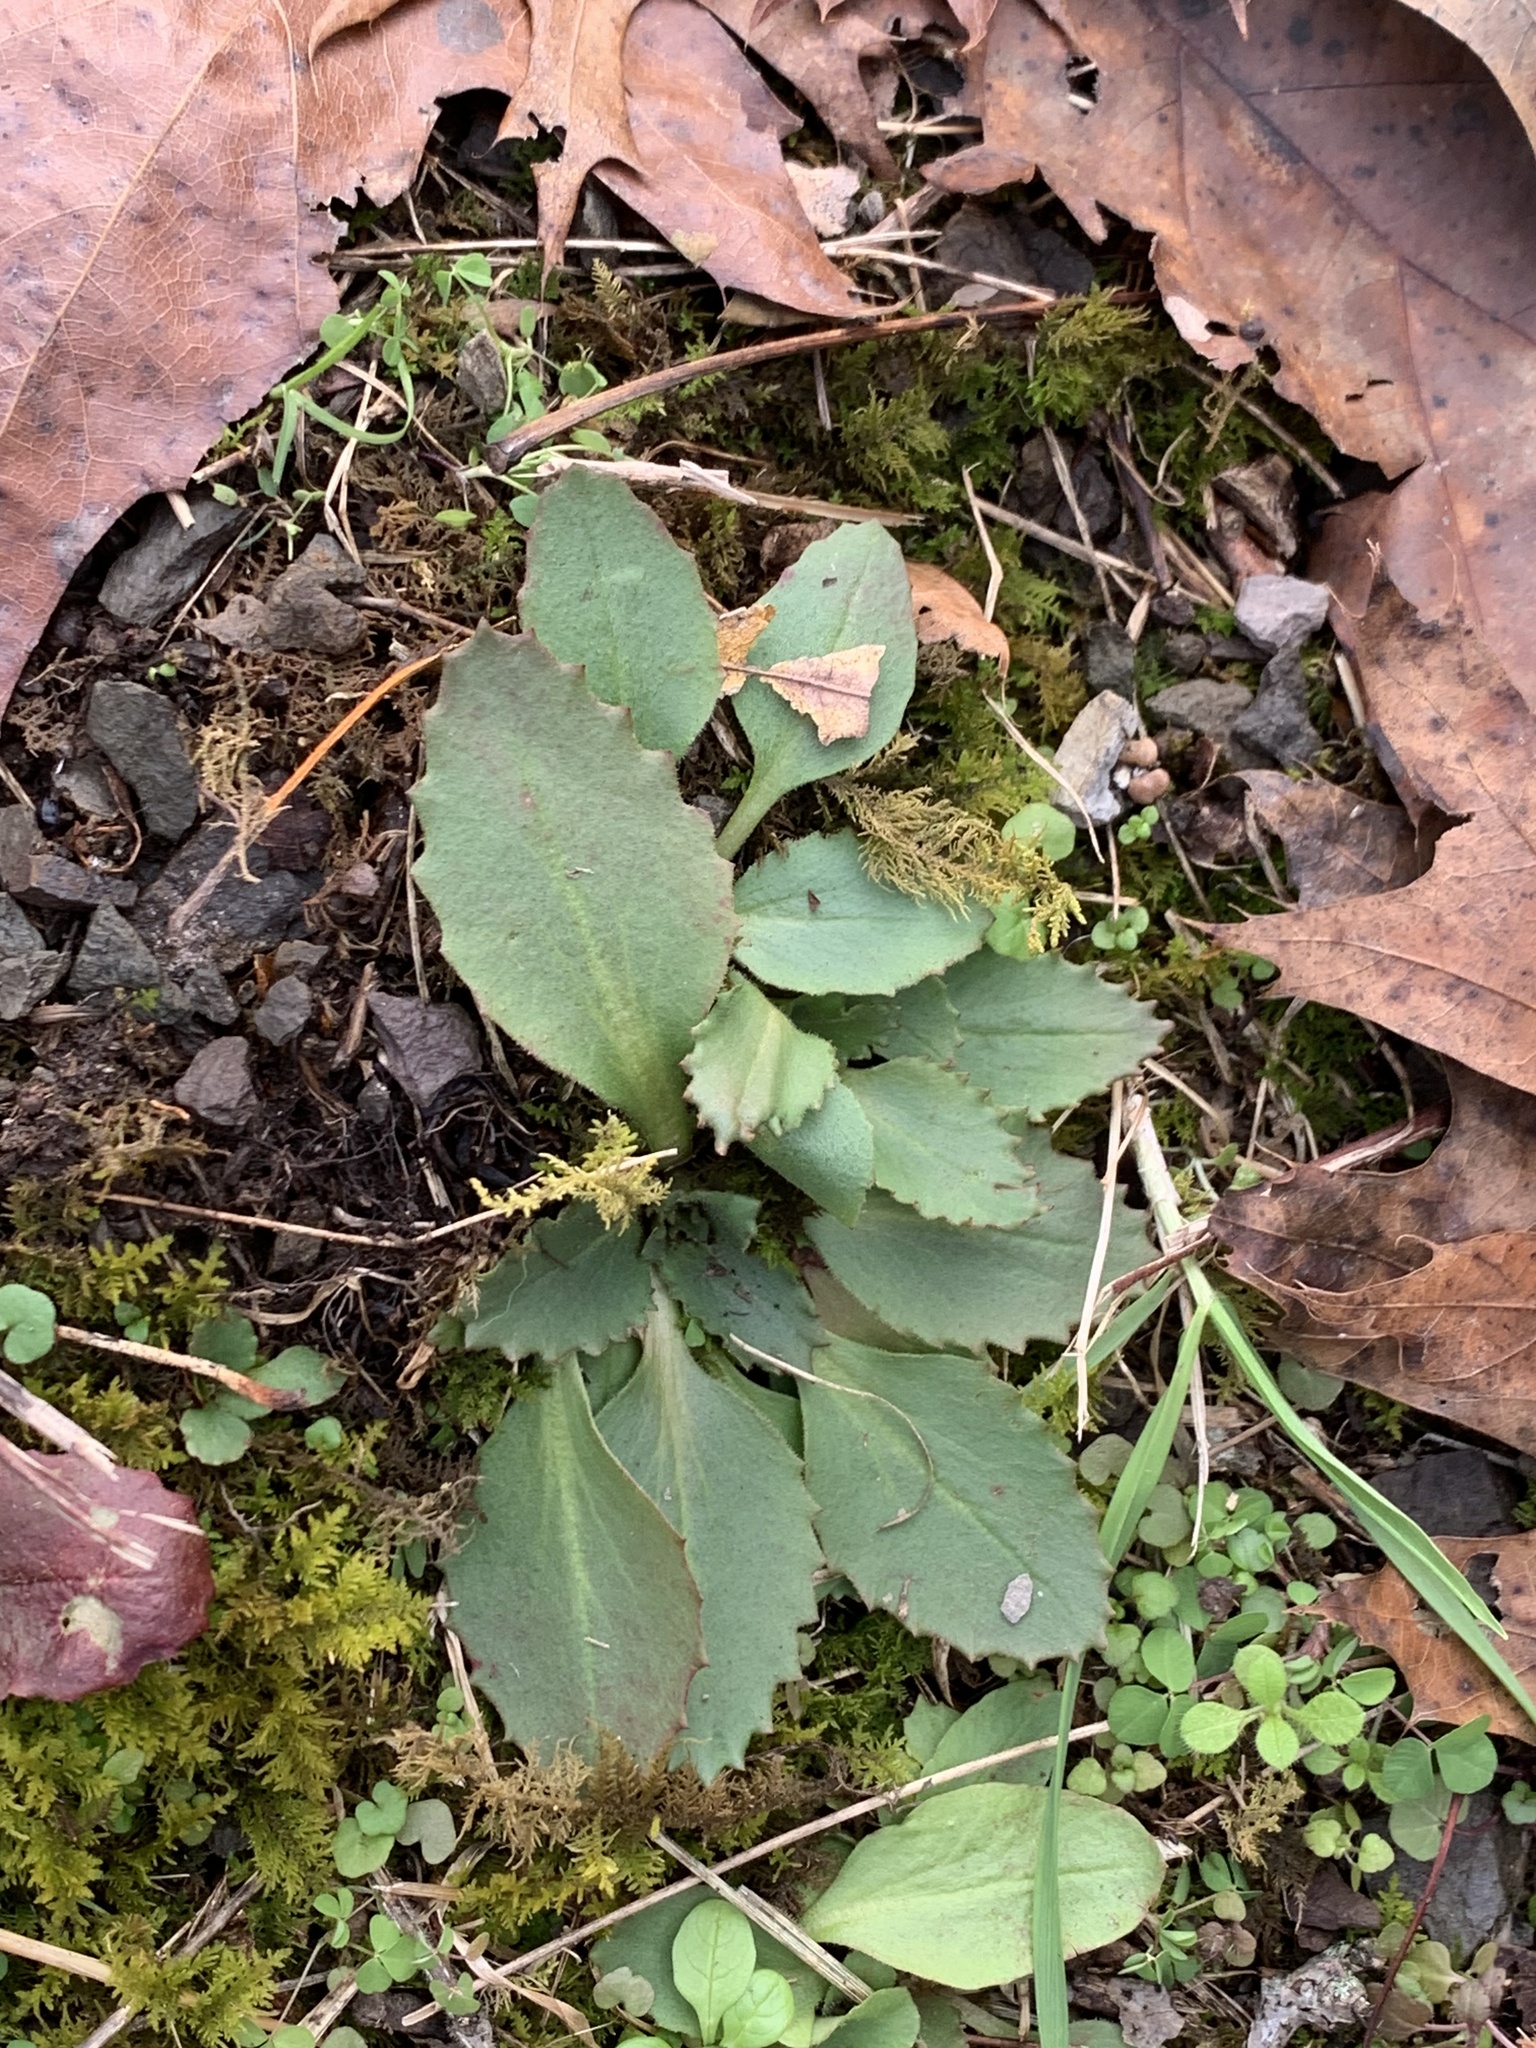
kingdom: Plantae
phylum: Tracheophyta
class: Magnoliopsida
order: Saxifragales
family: Saxifragaceae
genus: Micranthes
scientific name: Micranthes virginiensis
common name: Early saxifrage
